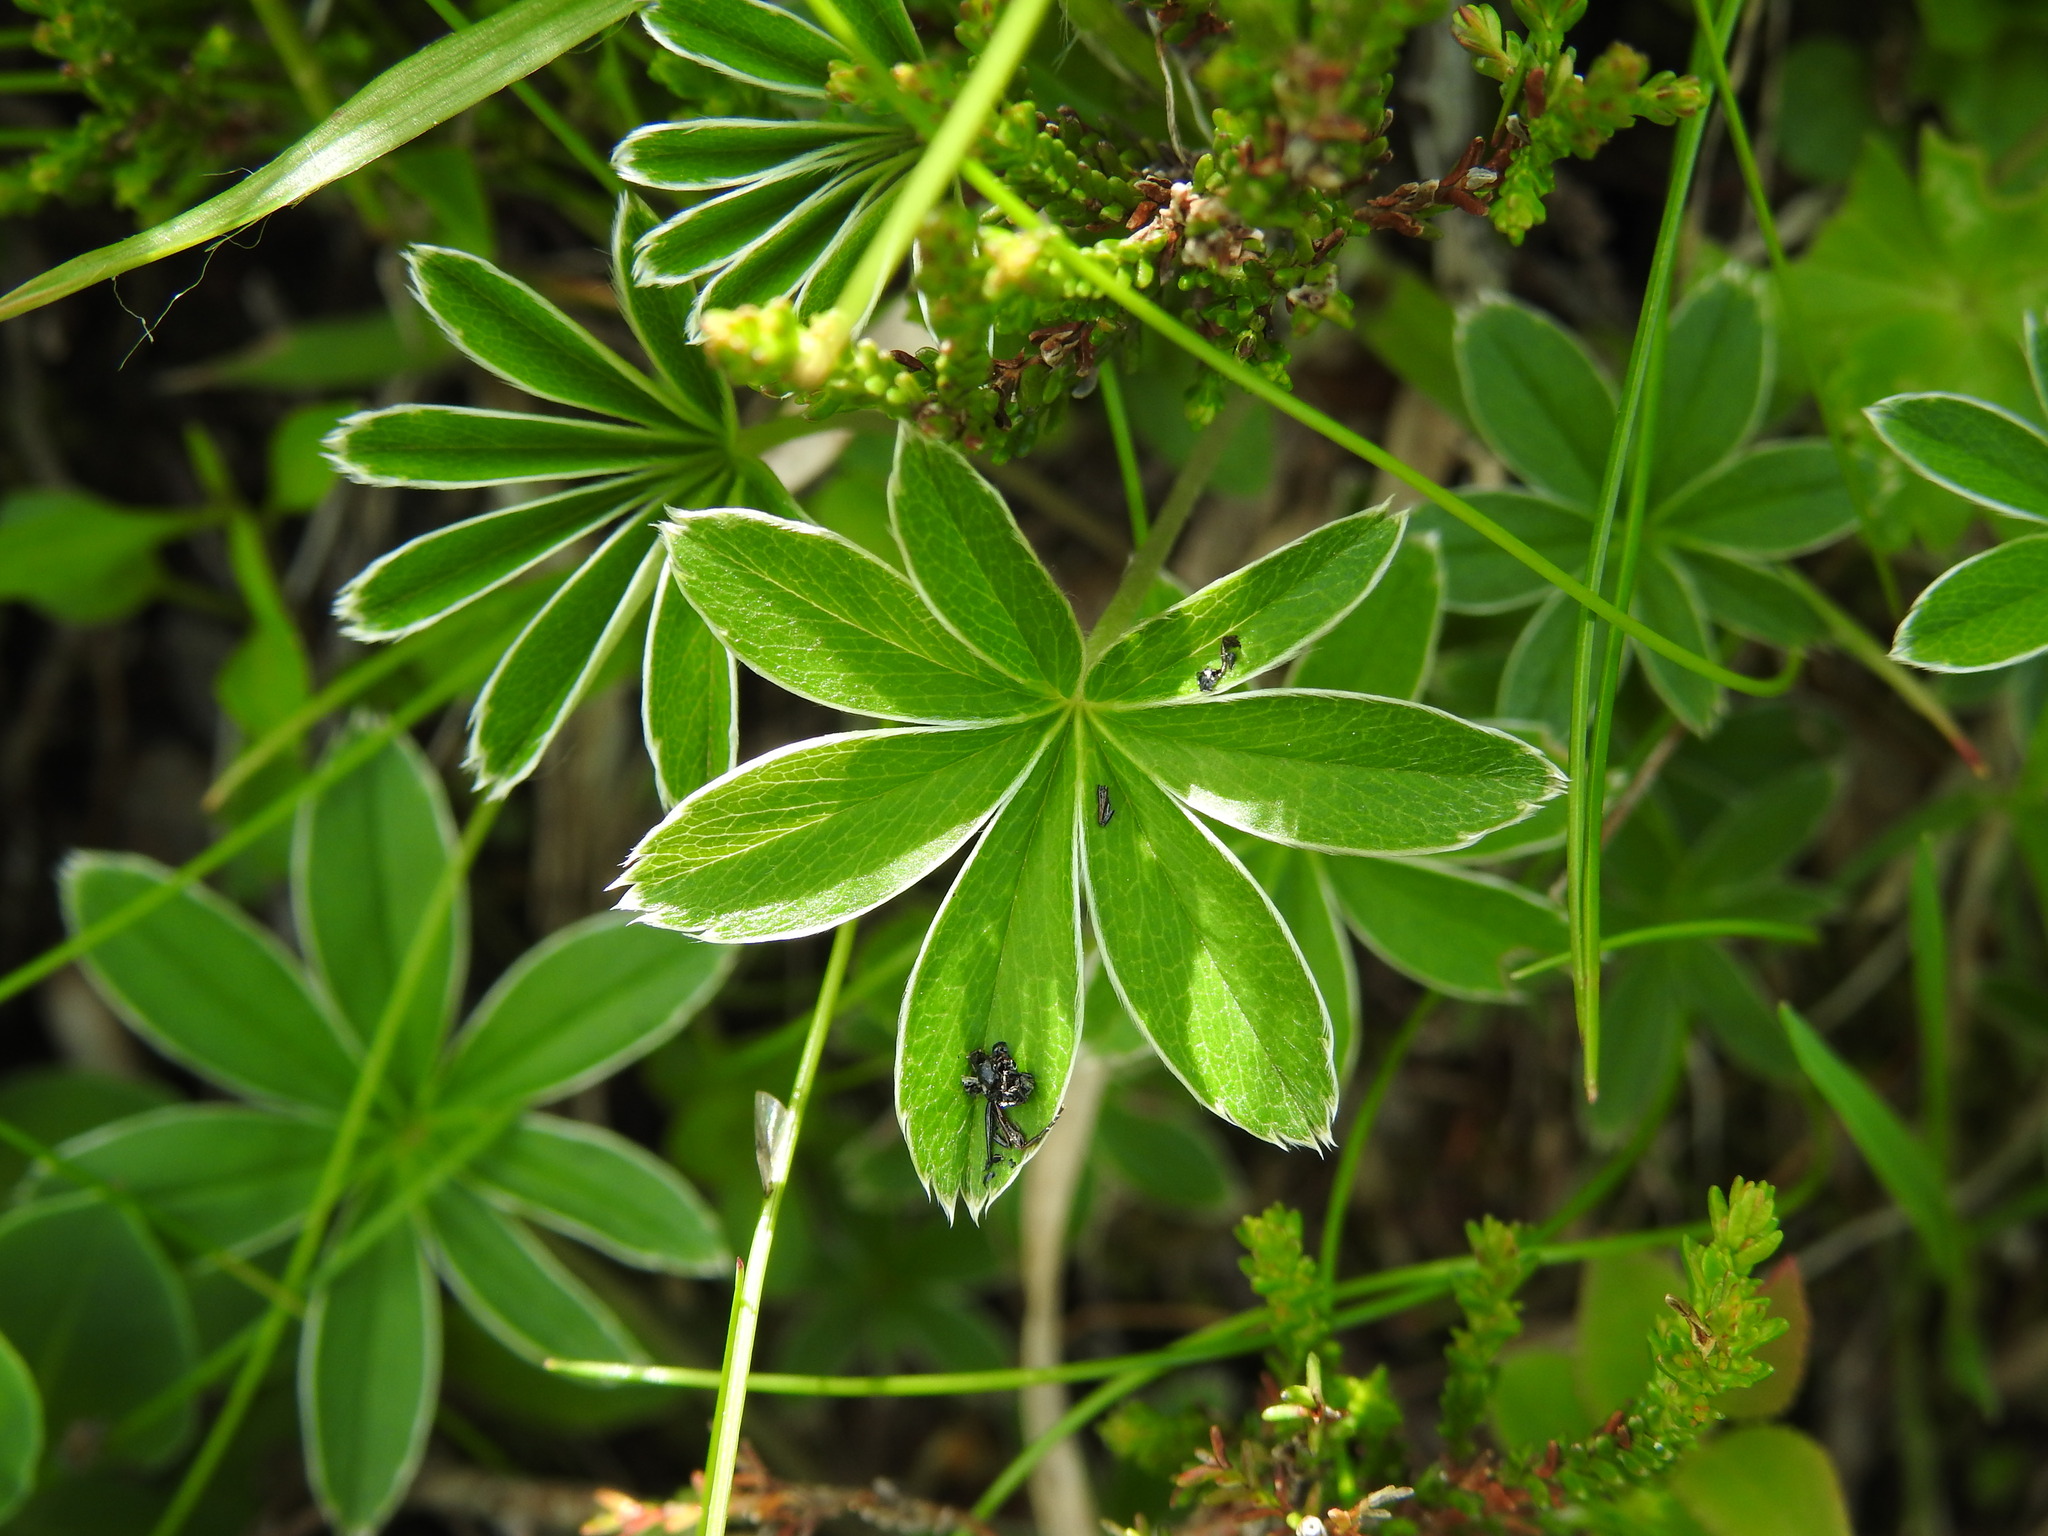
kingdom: Plantae
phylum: Tracheophyta
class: Magnoliopsida
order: Rosales
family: Rosaceae
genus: Alchemilla
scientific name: Alchemilla alpigena
